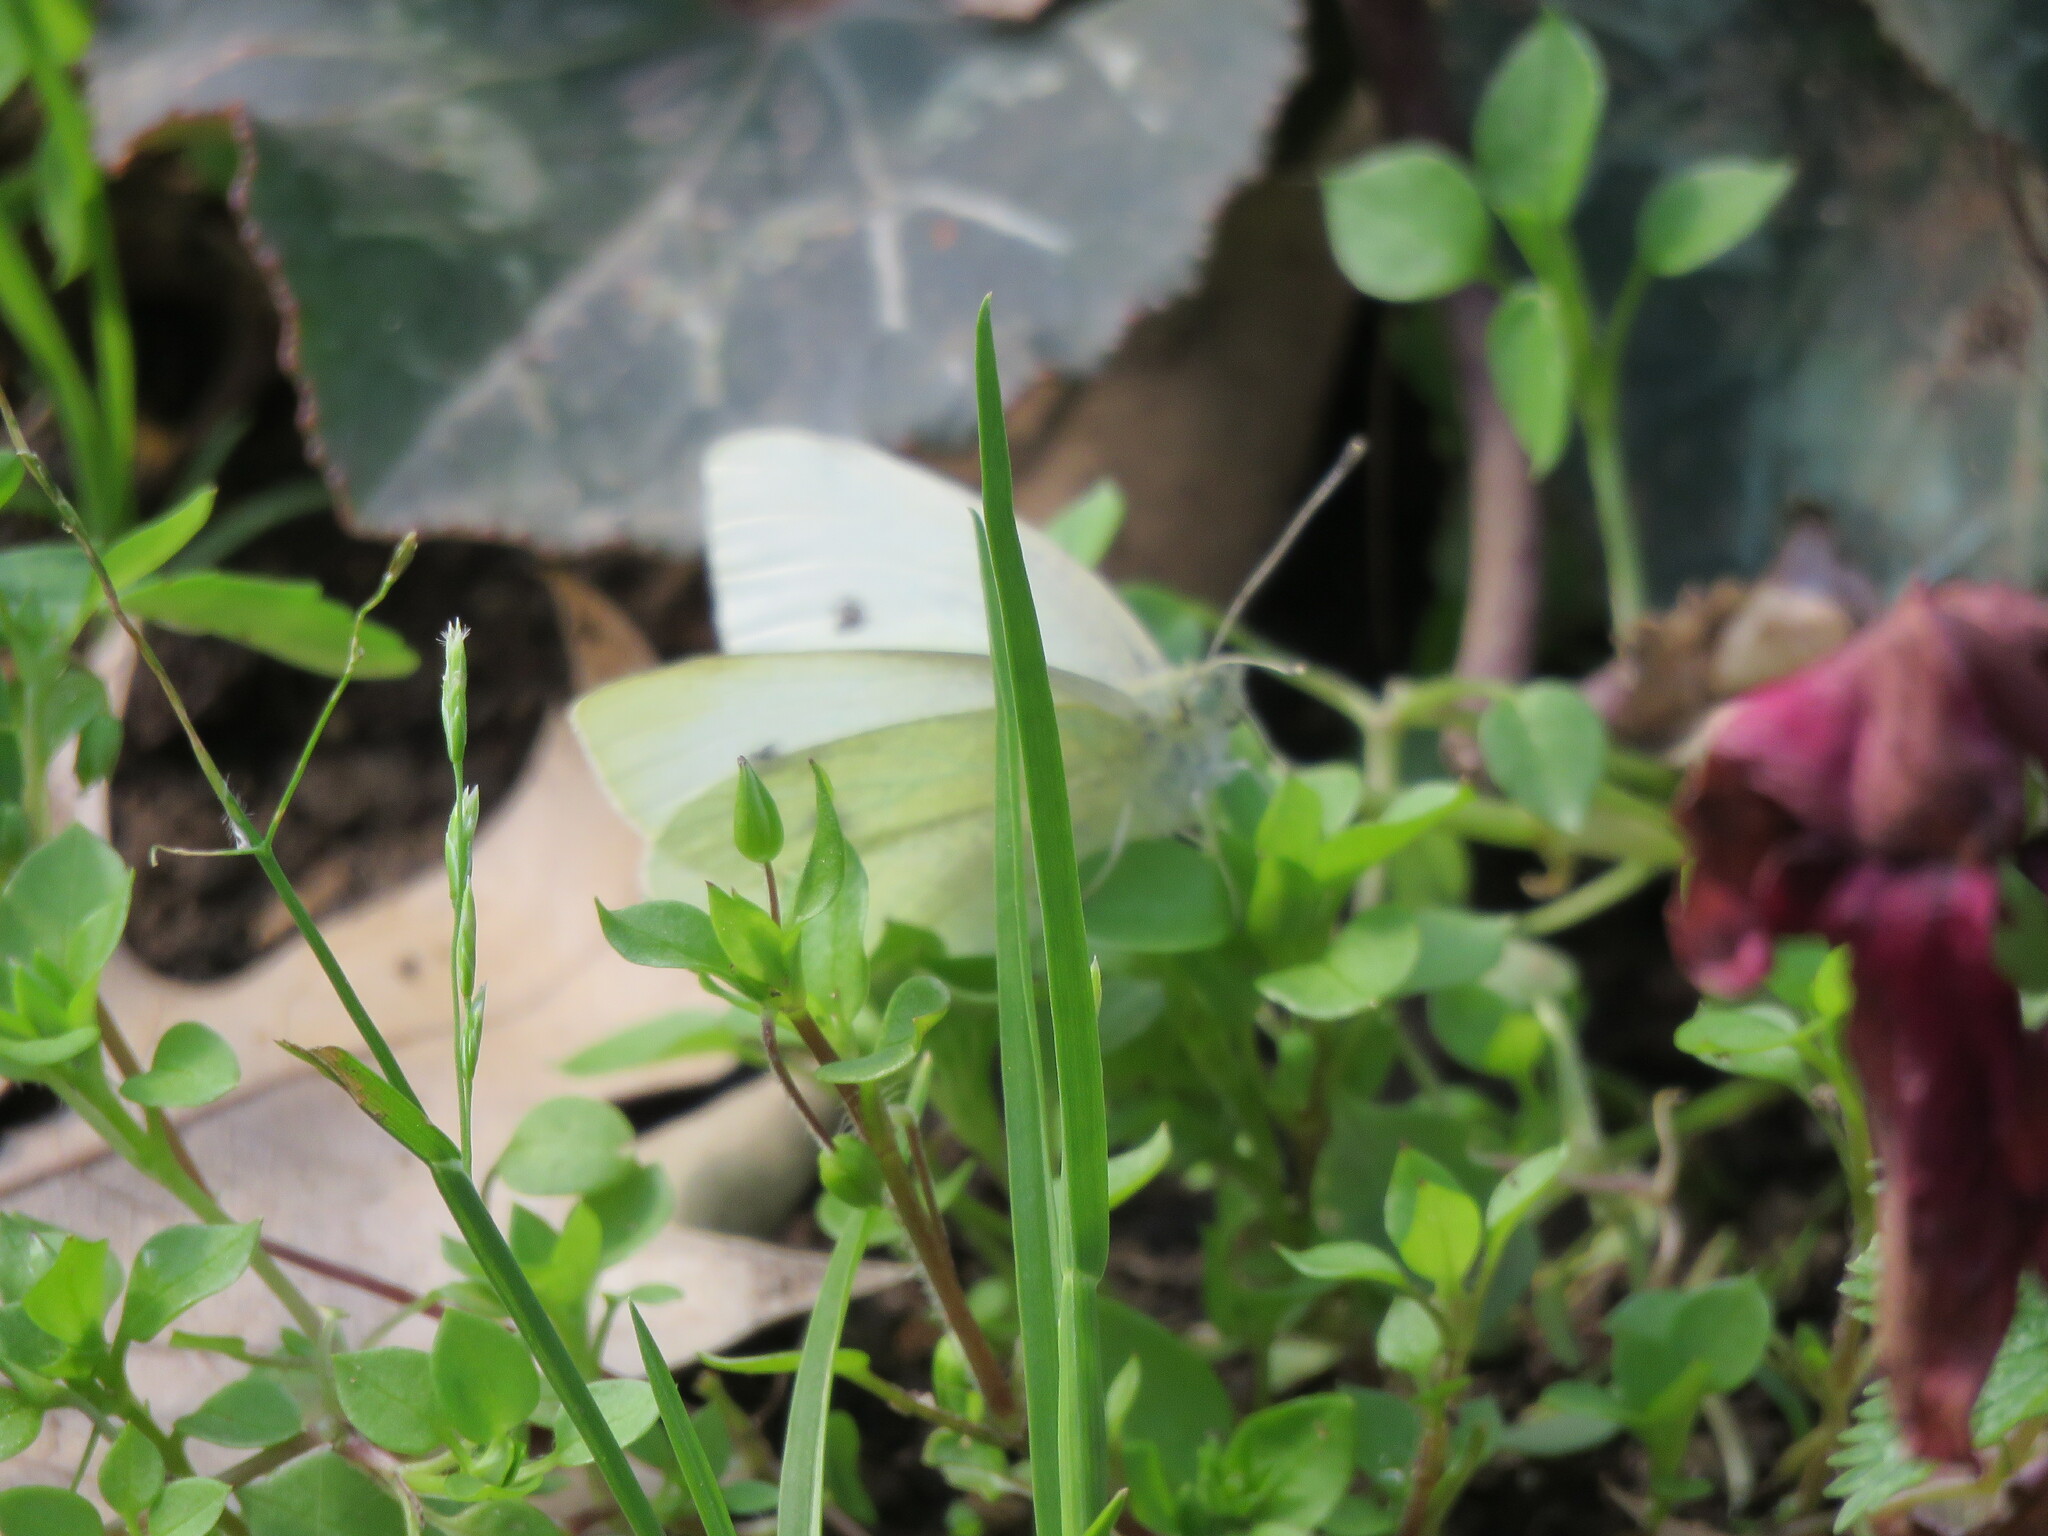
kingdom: Animalia
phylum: Arthropoda
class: Insecta
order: Lepidoptera
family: Pieridae
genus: Pieris
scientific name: Pieris rapae
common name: Small white
